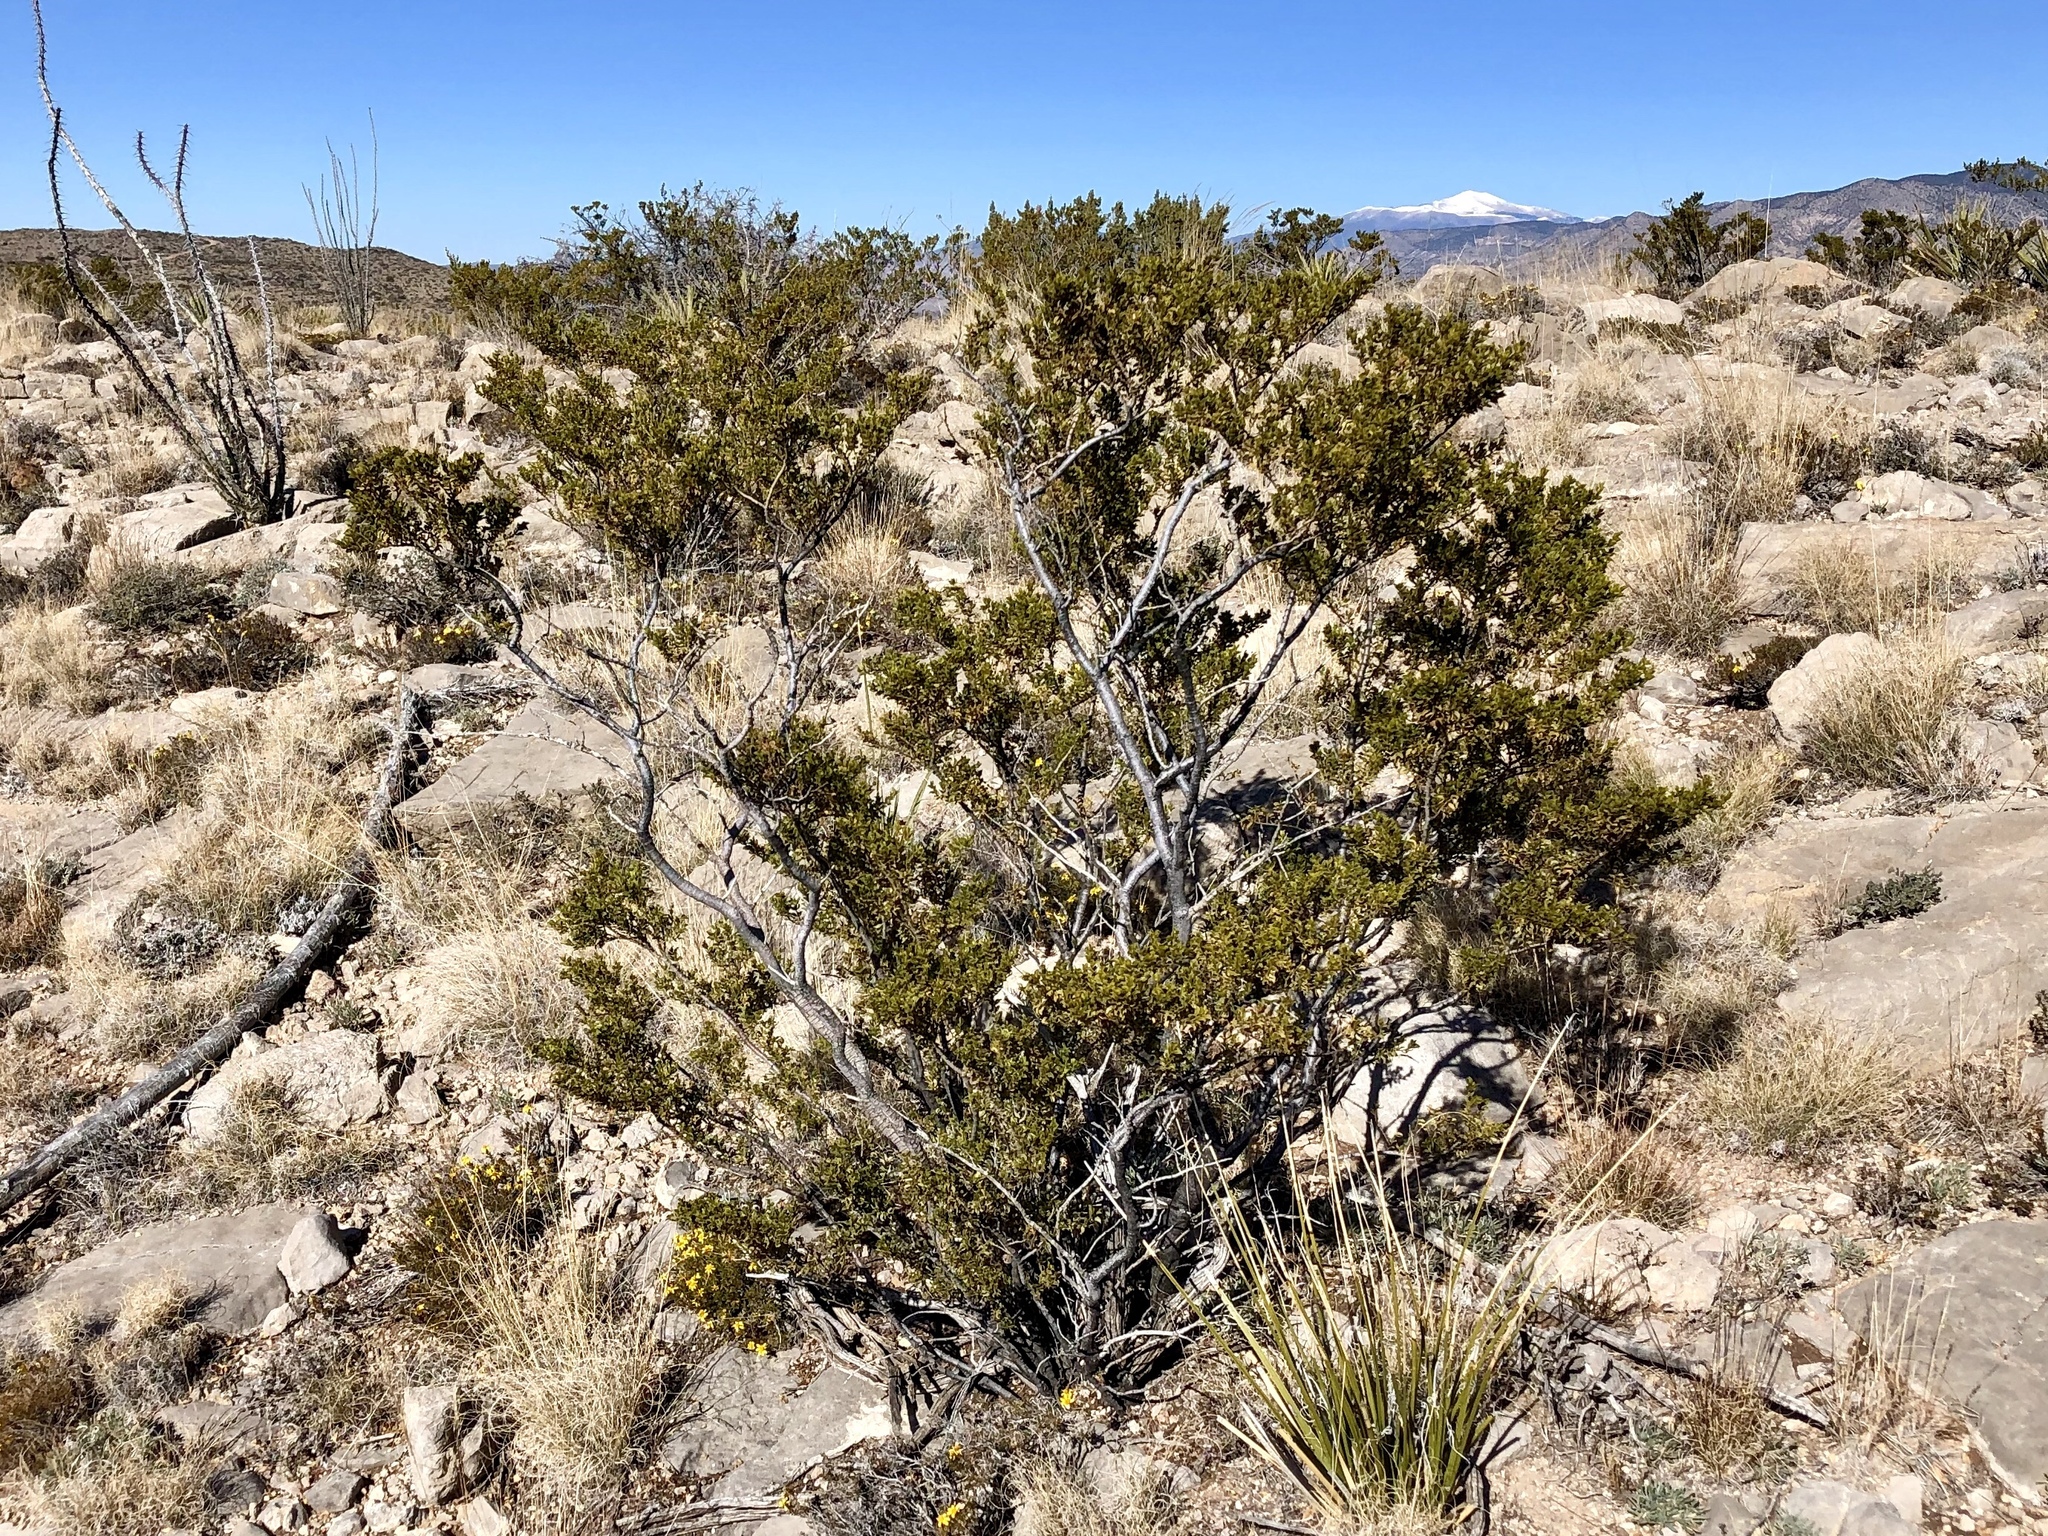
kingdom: Plantae
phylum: Tracheophyta
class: Magnoliopsida
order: Zygophyllales
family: Zygophyllaceae
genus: Larrea
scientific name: Larrea tridentata
